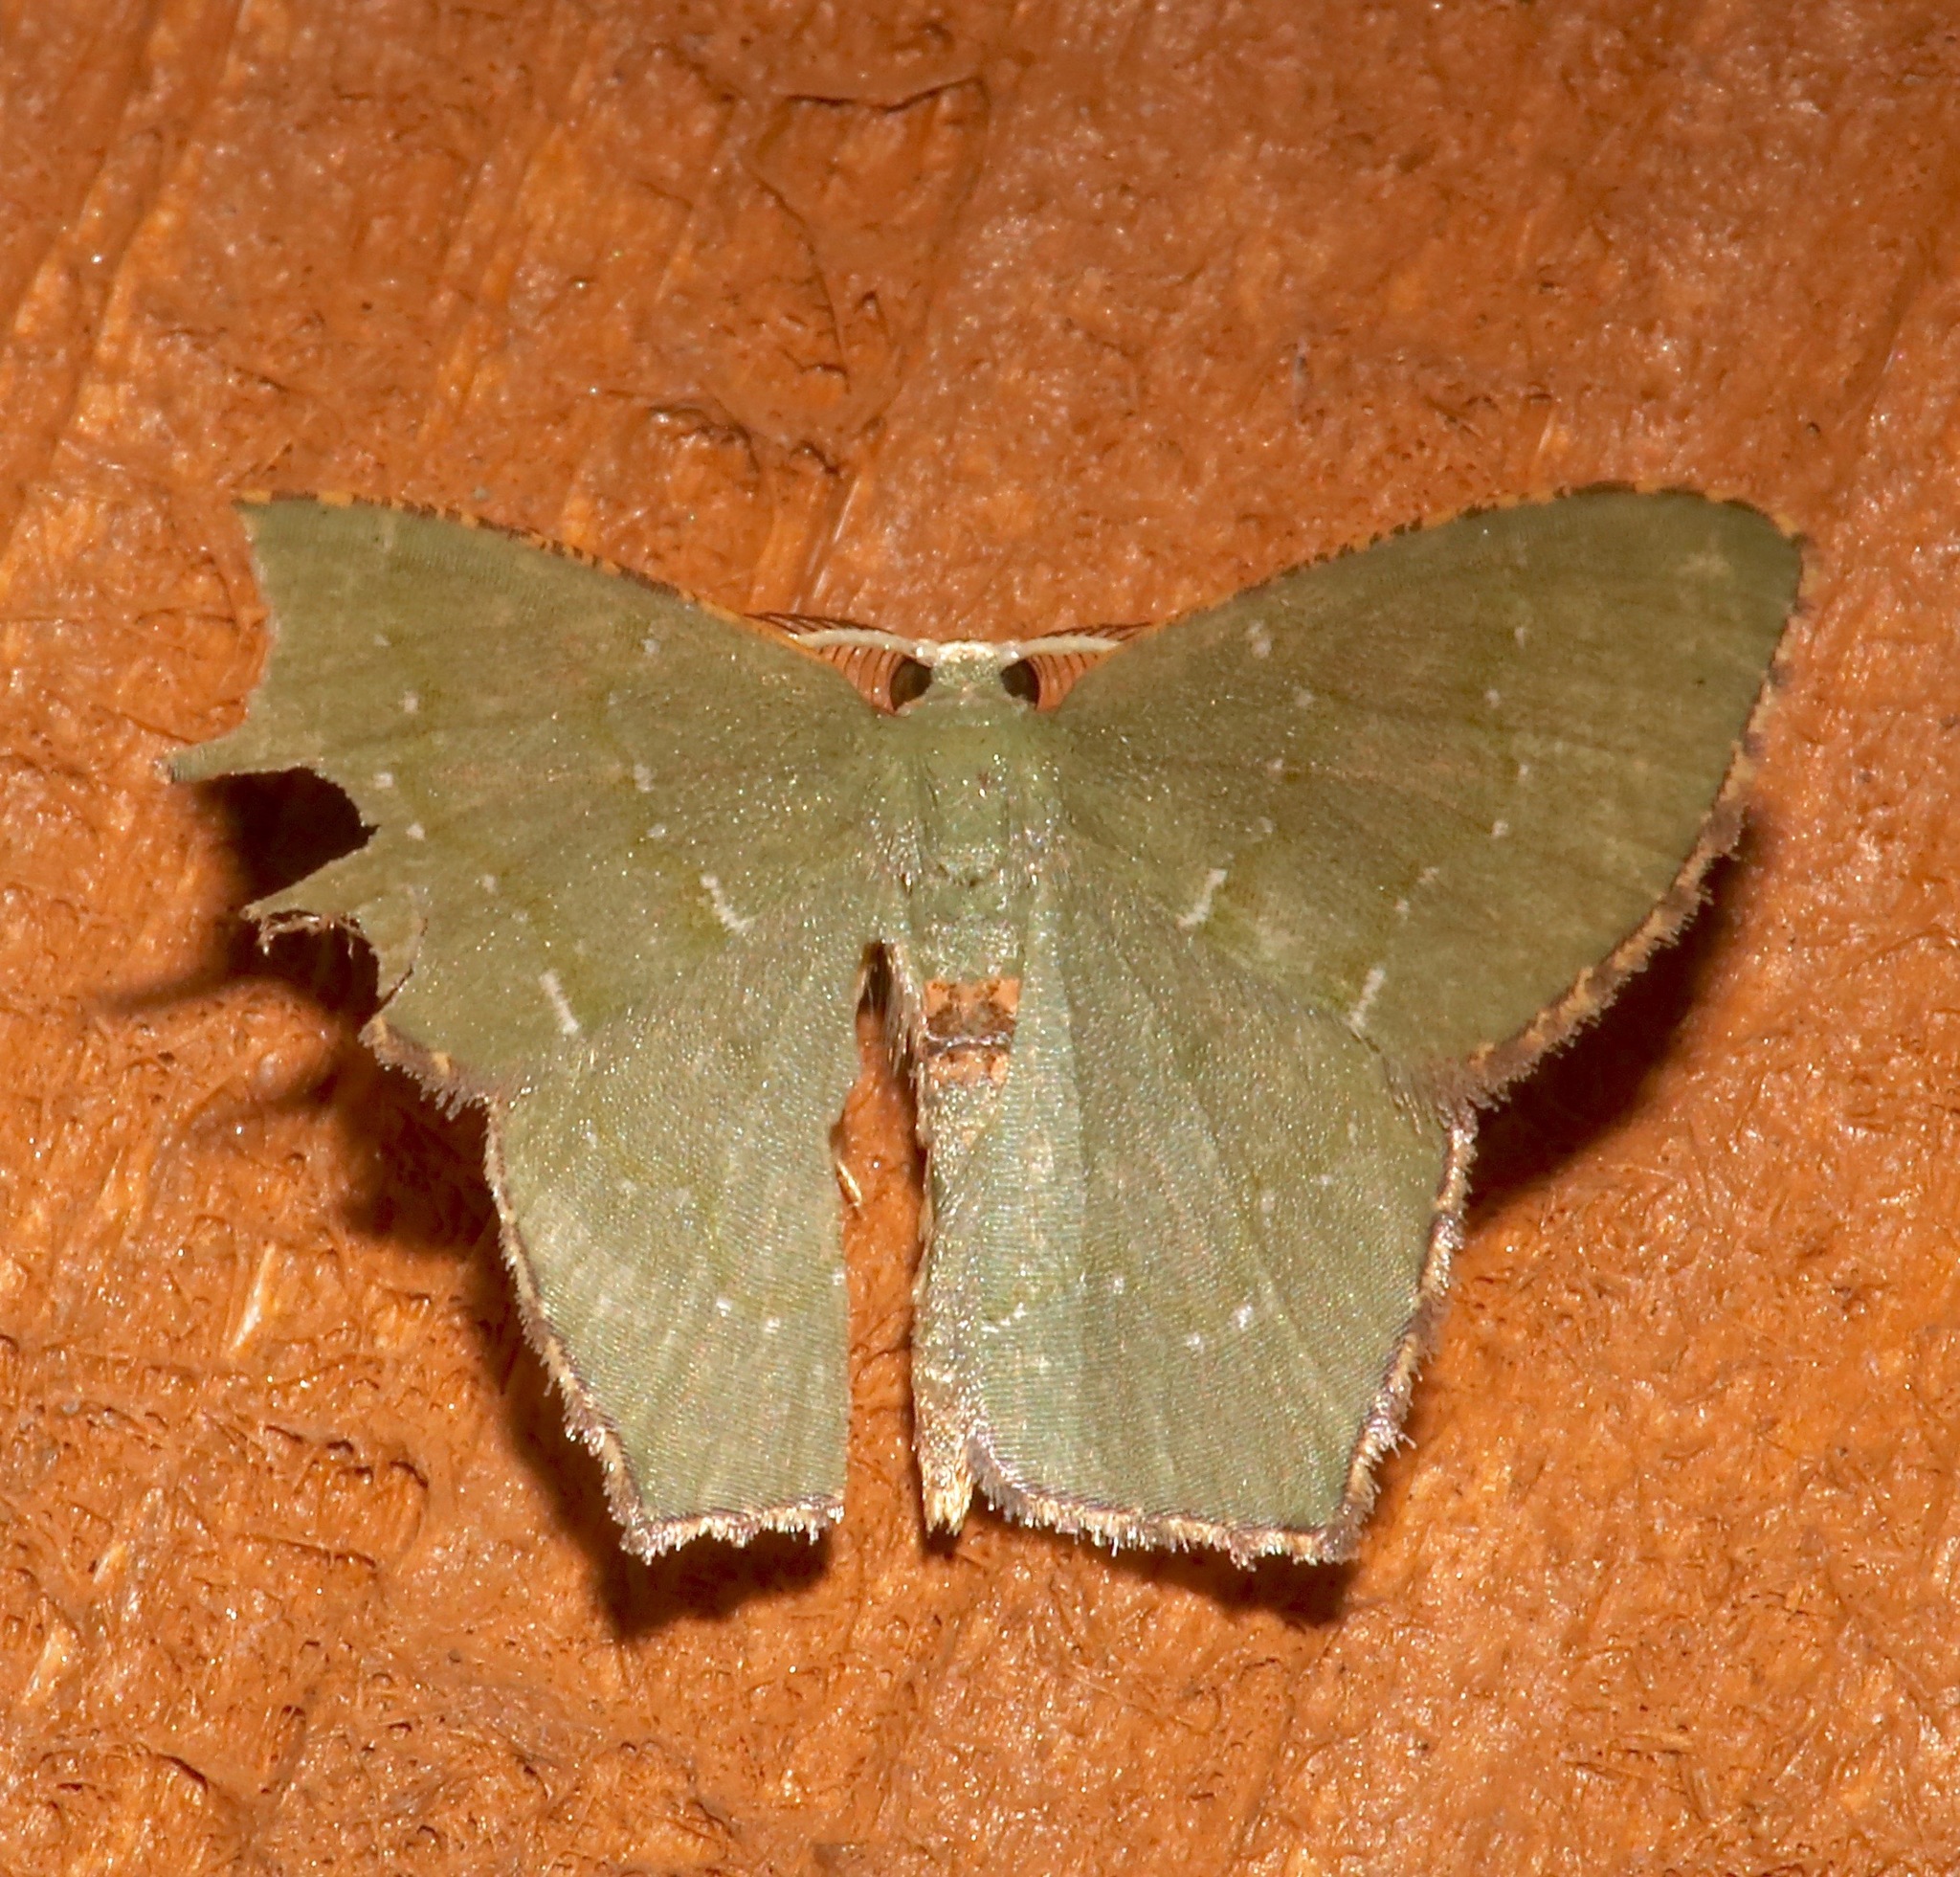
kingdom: Animalia
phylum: Arthropoda
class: Insecta
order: Lepidoptera
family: Geometridae
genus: Chloropteryx
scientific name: Chloropteryx tepperaria
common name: Angle winged emerald moth
